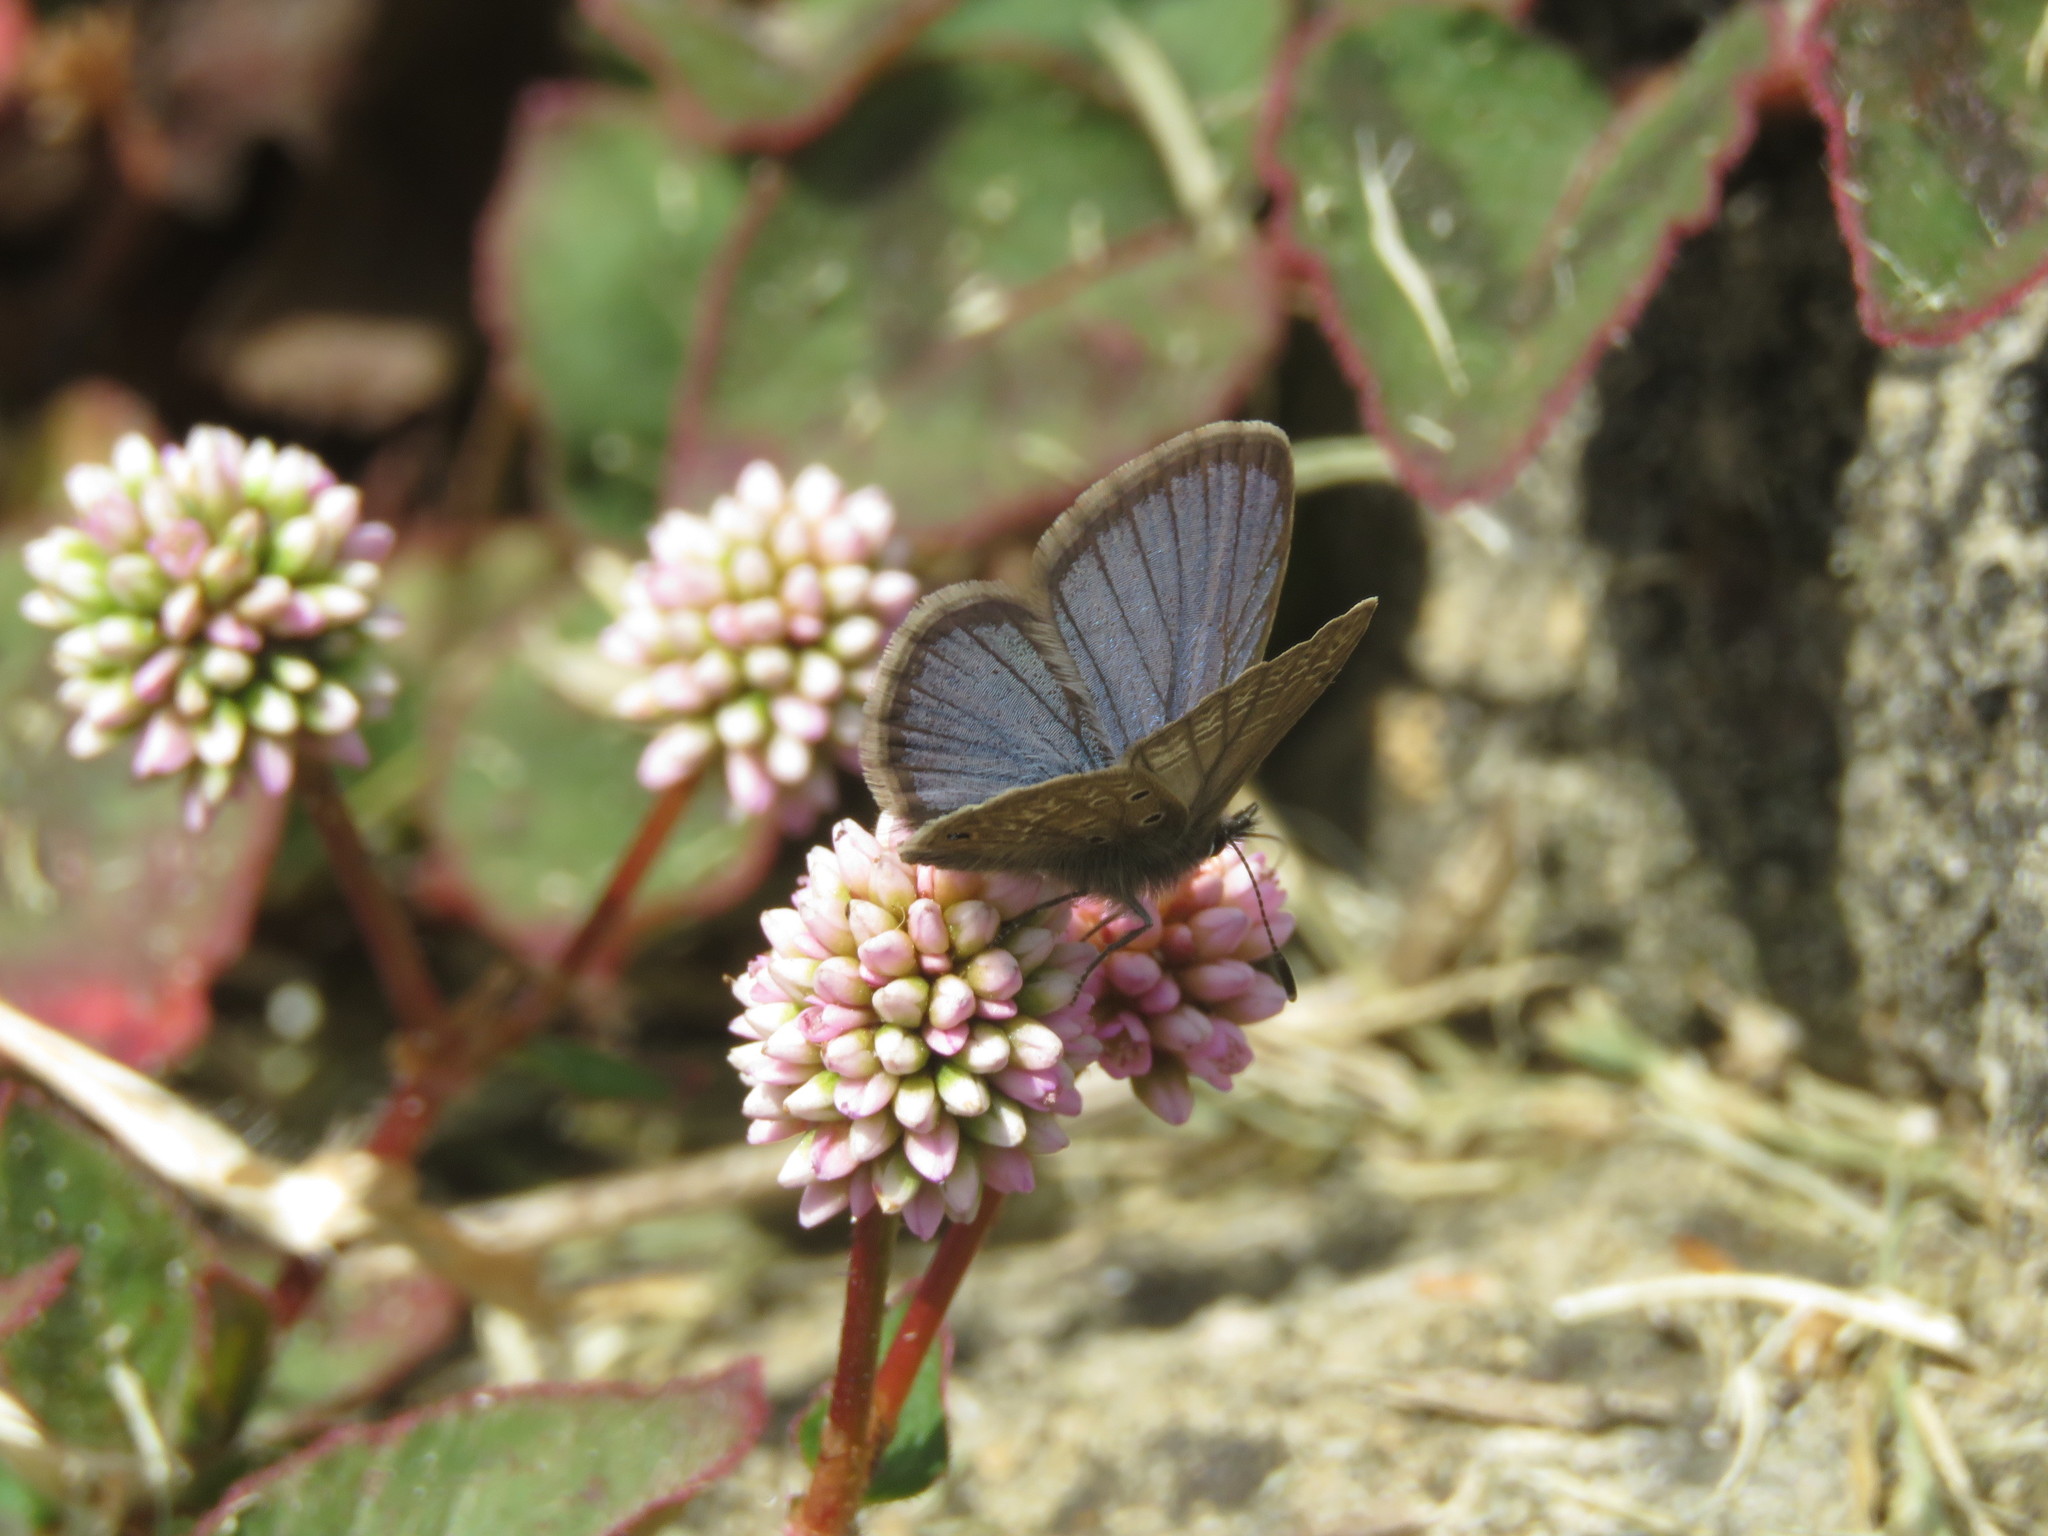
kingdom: Plantae
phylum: Tracheophyta
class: Magnoliopsida
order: Caryophyllales
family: Polygonaceae
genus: Persicaria
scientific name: Persicaria capitata
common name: Pinkhead smartweed
